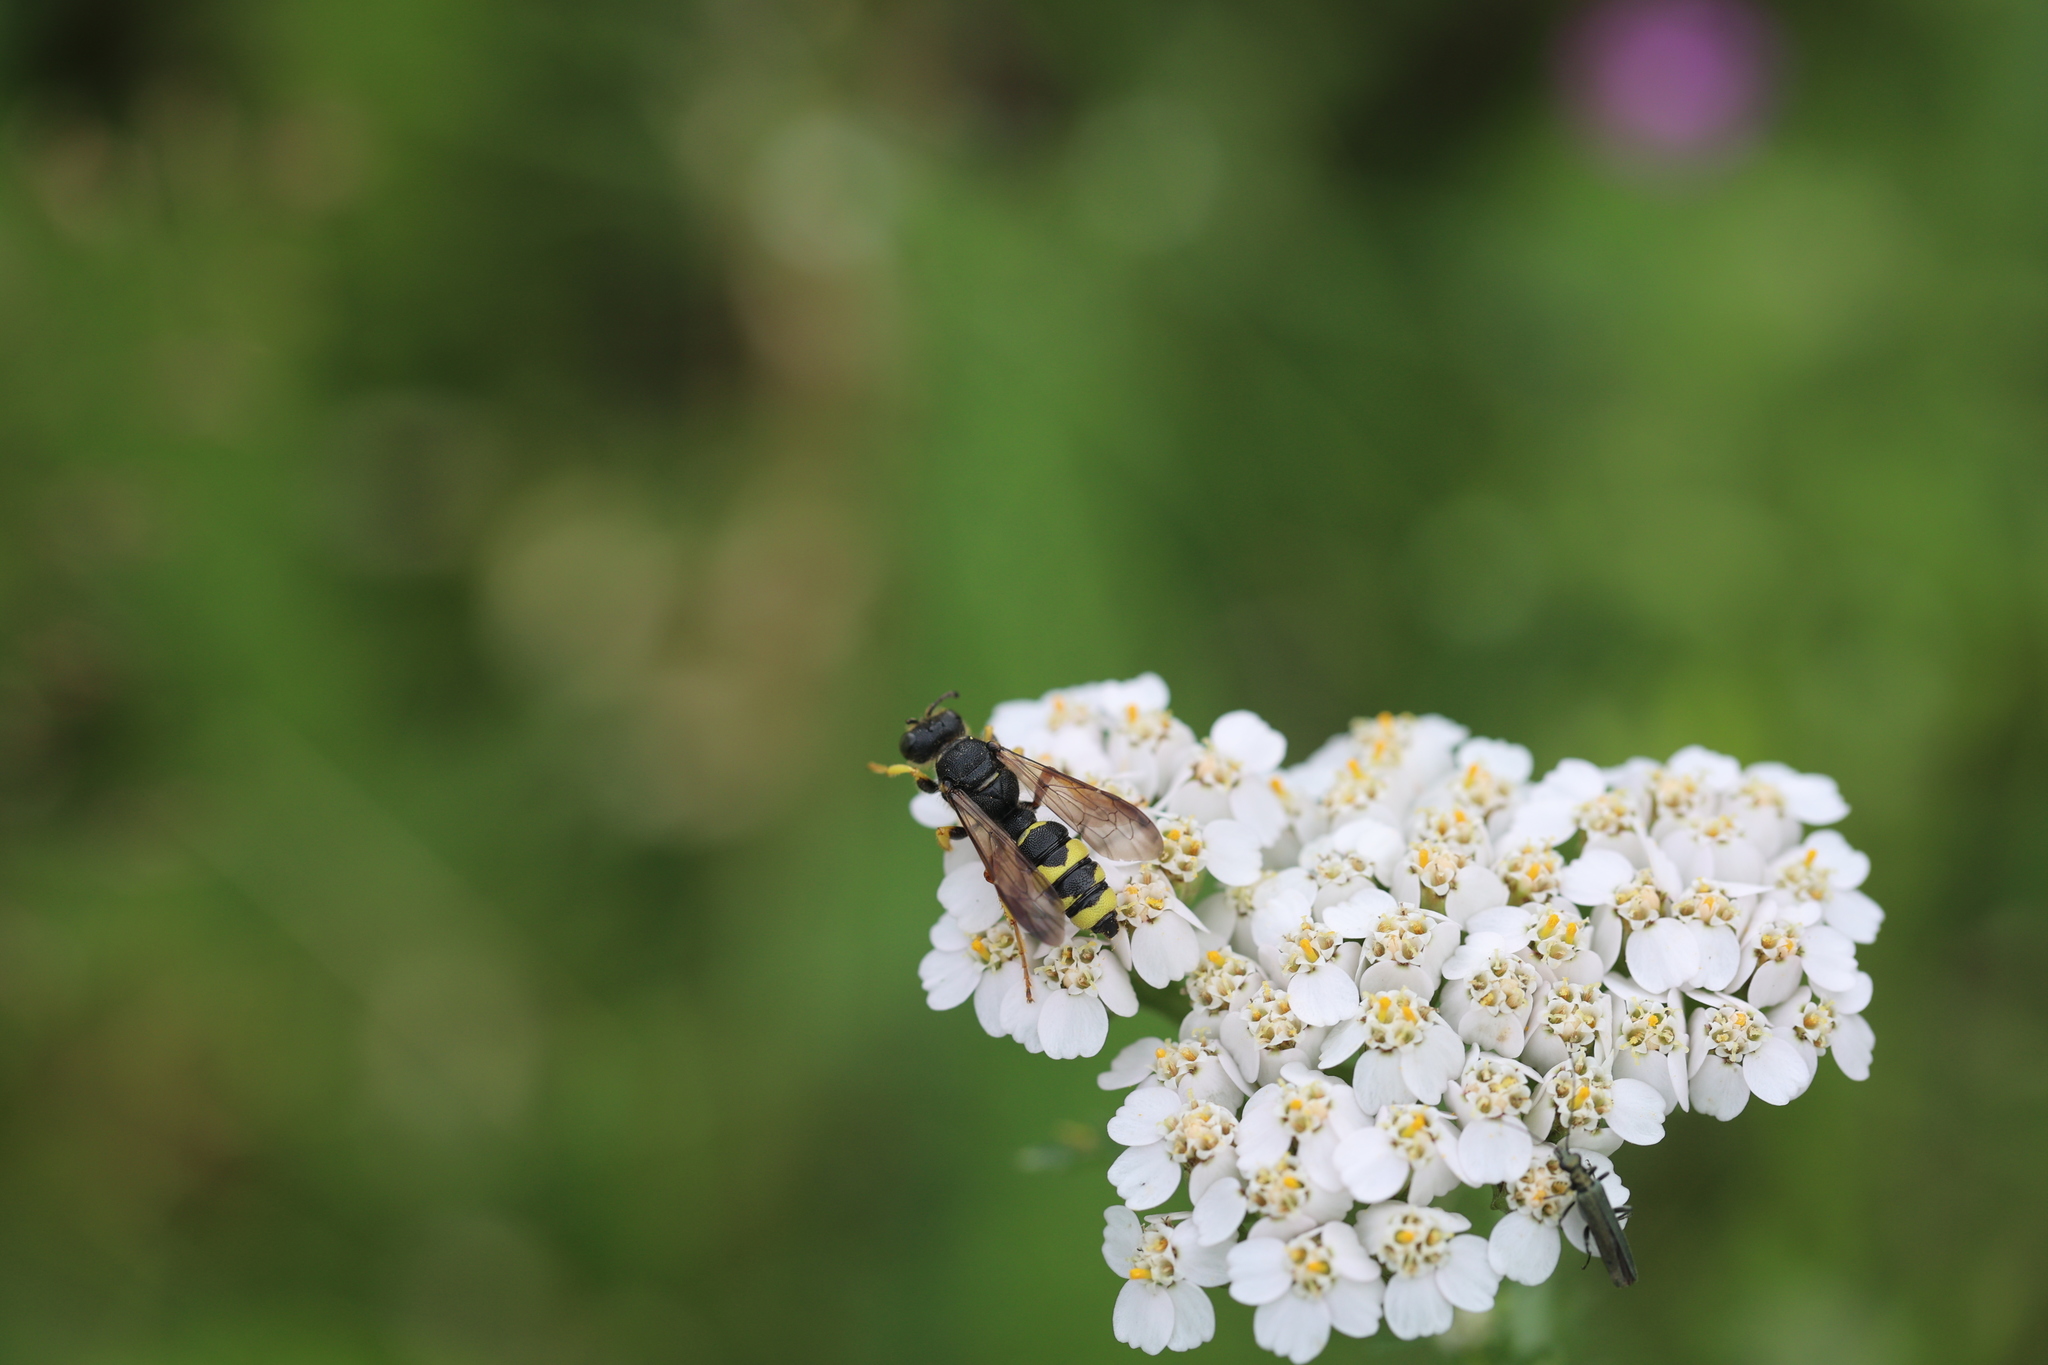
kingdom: Animalia
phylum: Arthropoda
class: Insecta
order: Hymenoptera
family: Crabronidae
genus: Cerceris
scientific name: Cerceris rybyensis
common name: Ornate tailed digger wasp
